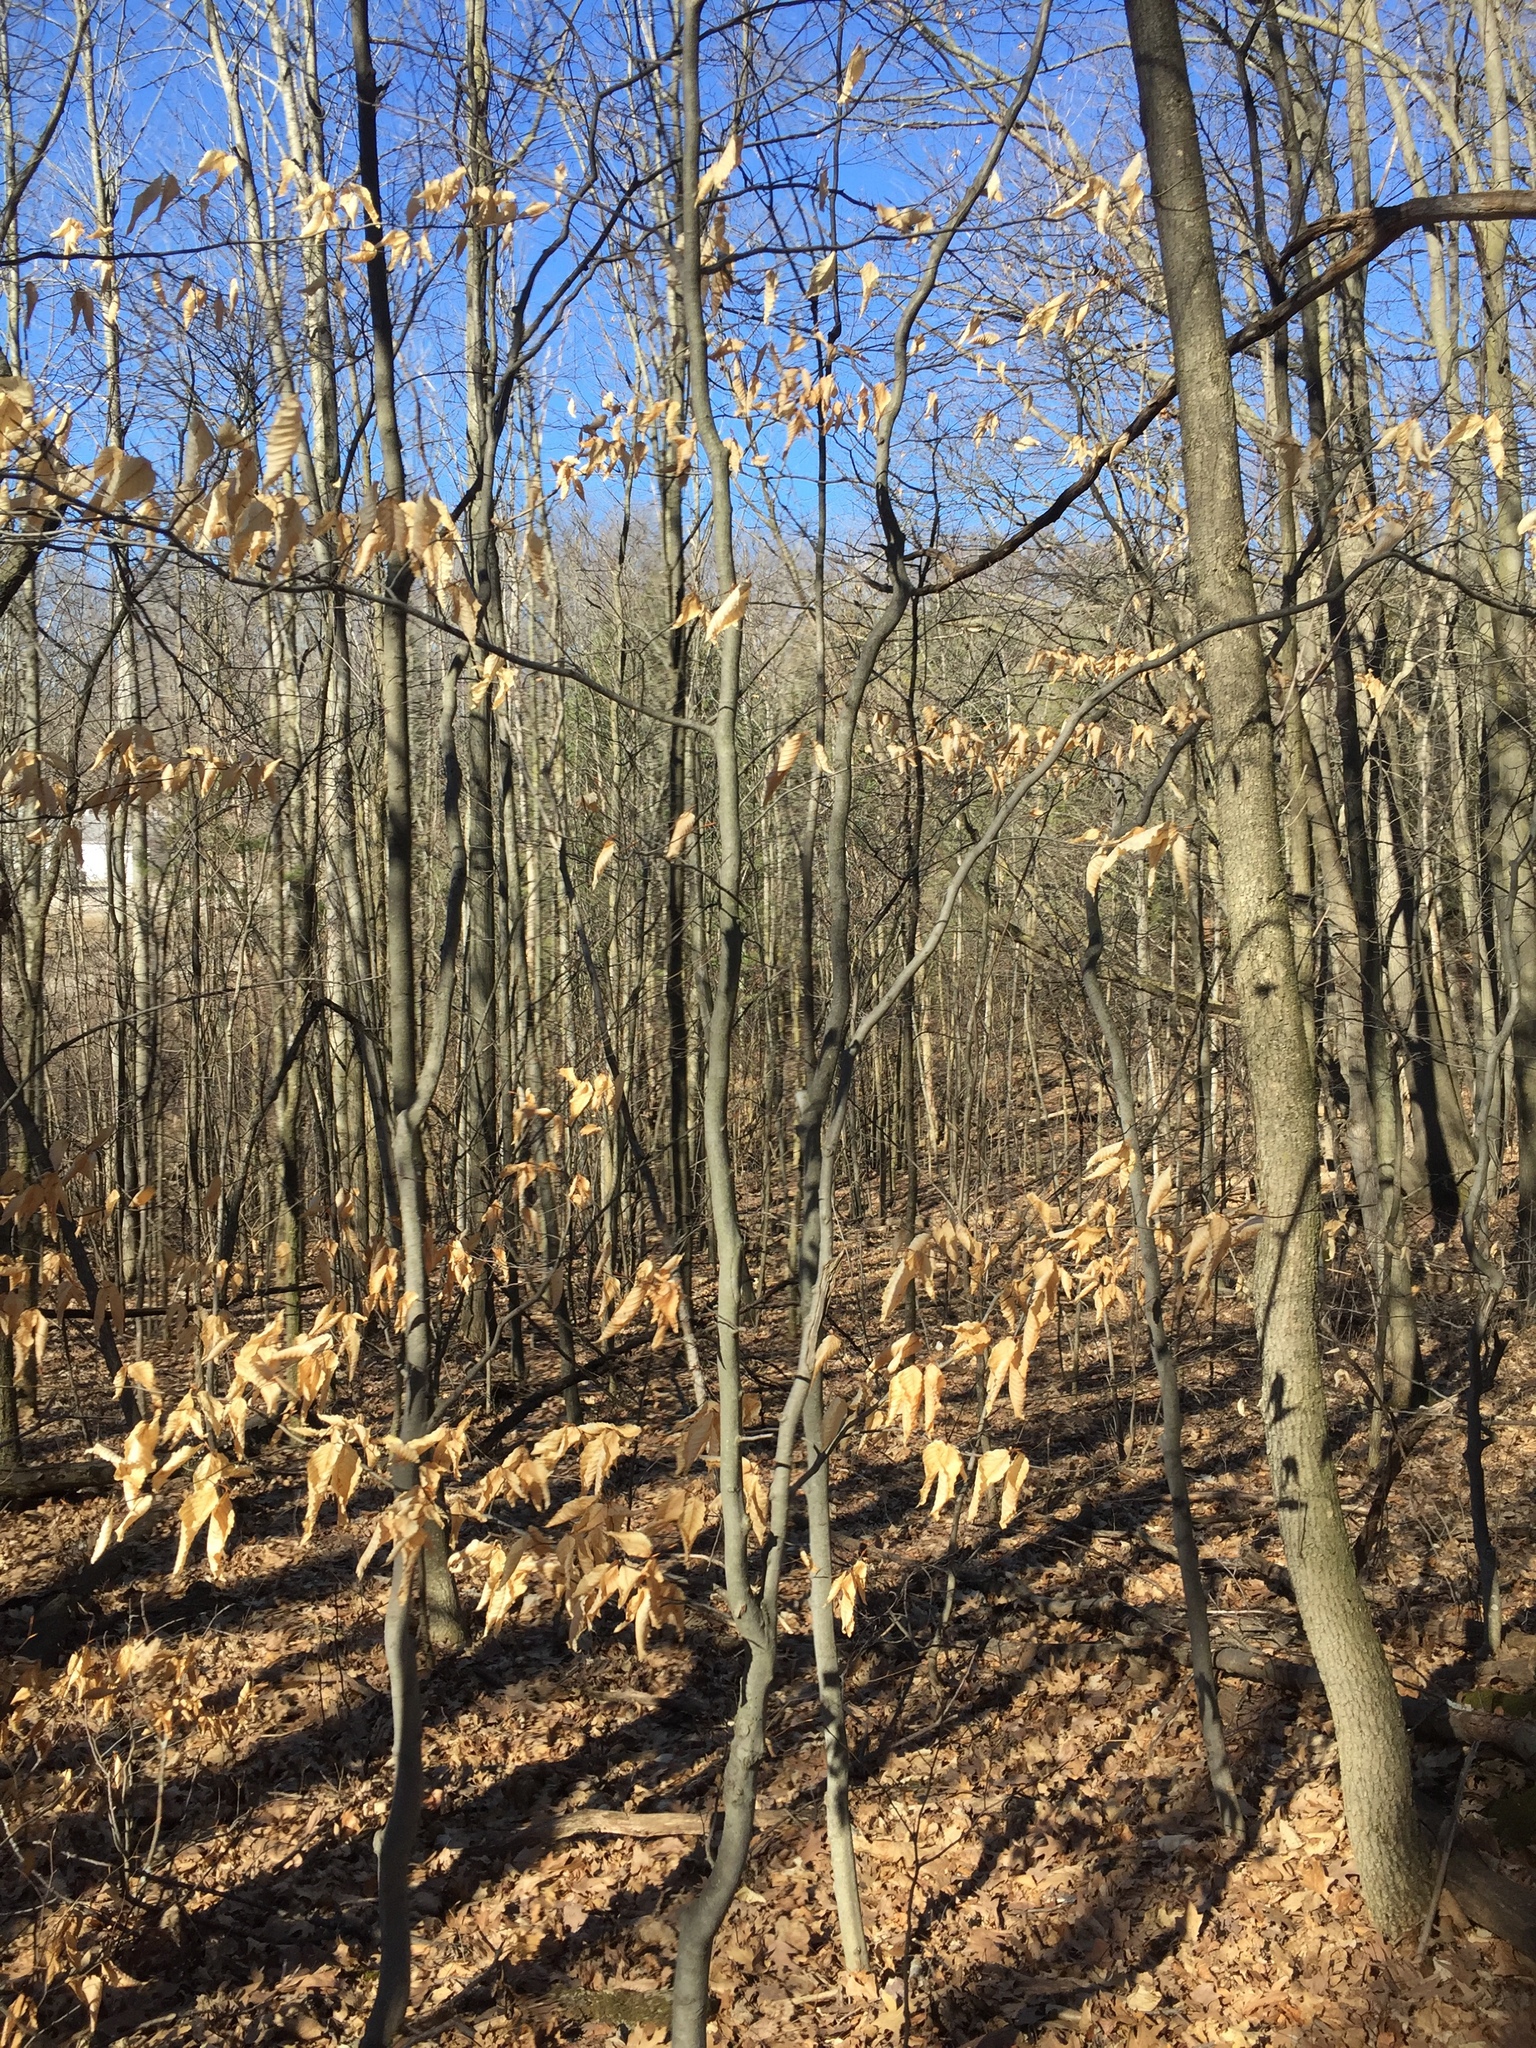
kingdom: Plantae
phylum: Tracheophyta
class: Magnoliopsida
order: Fagales
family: Fagaceae
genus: Fagus
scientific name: Fagus grandifolia
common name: American beech
